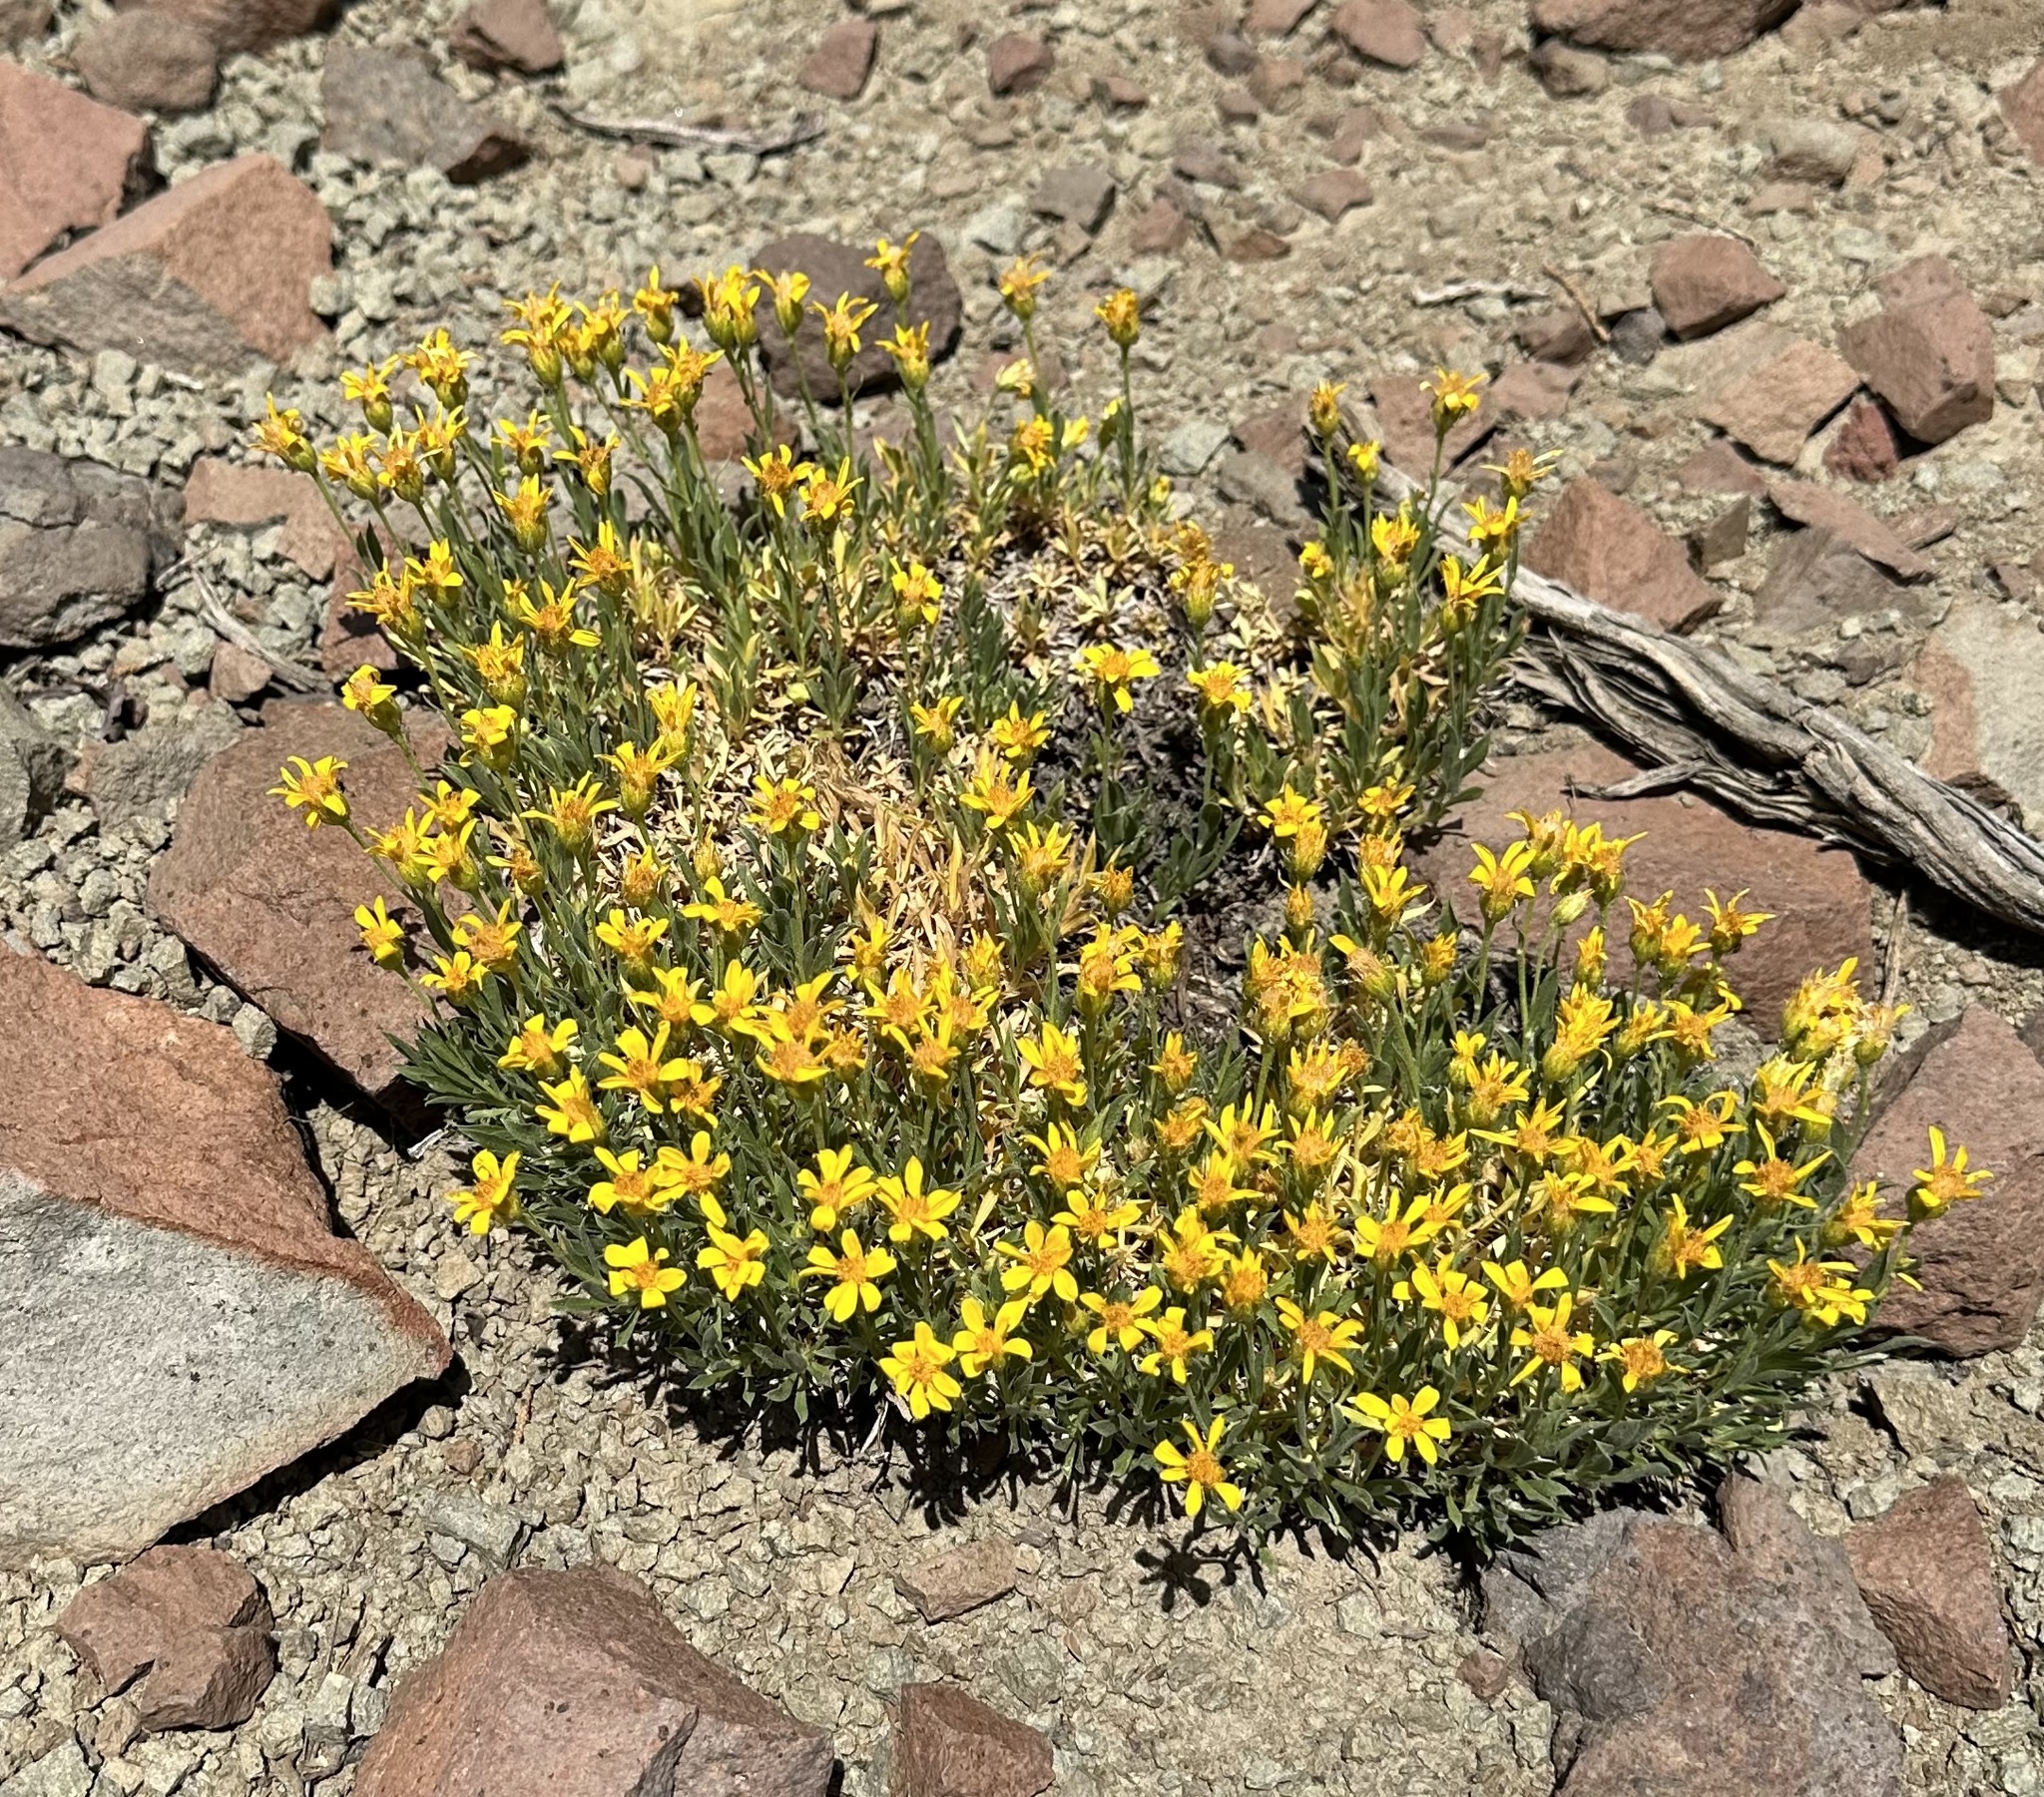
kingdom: Plantae
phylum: Tracheophyta
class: Magnoliopsida
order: Asterales
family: Asteraceae
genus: Stenotus
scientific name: Stenotus acaulis
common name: Stemless goldenweed
